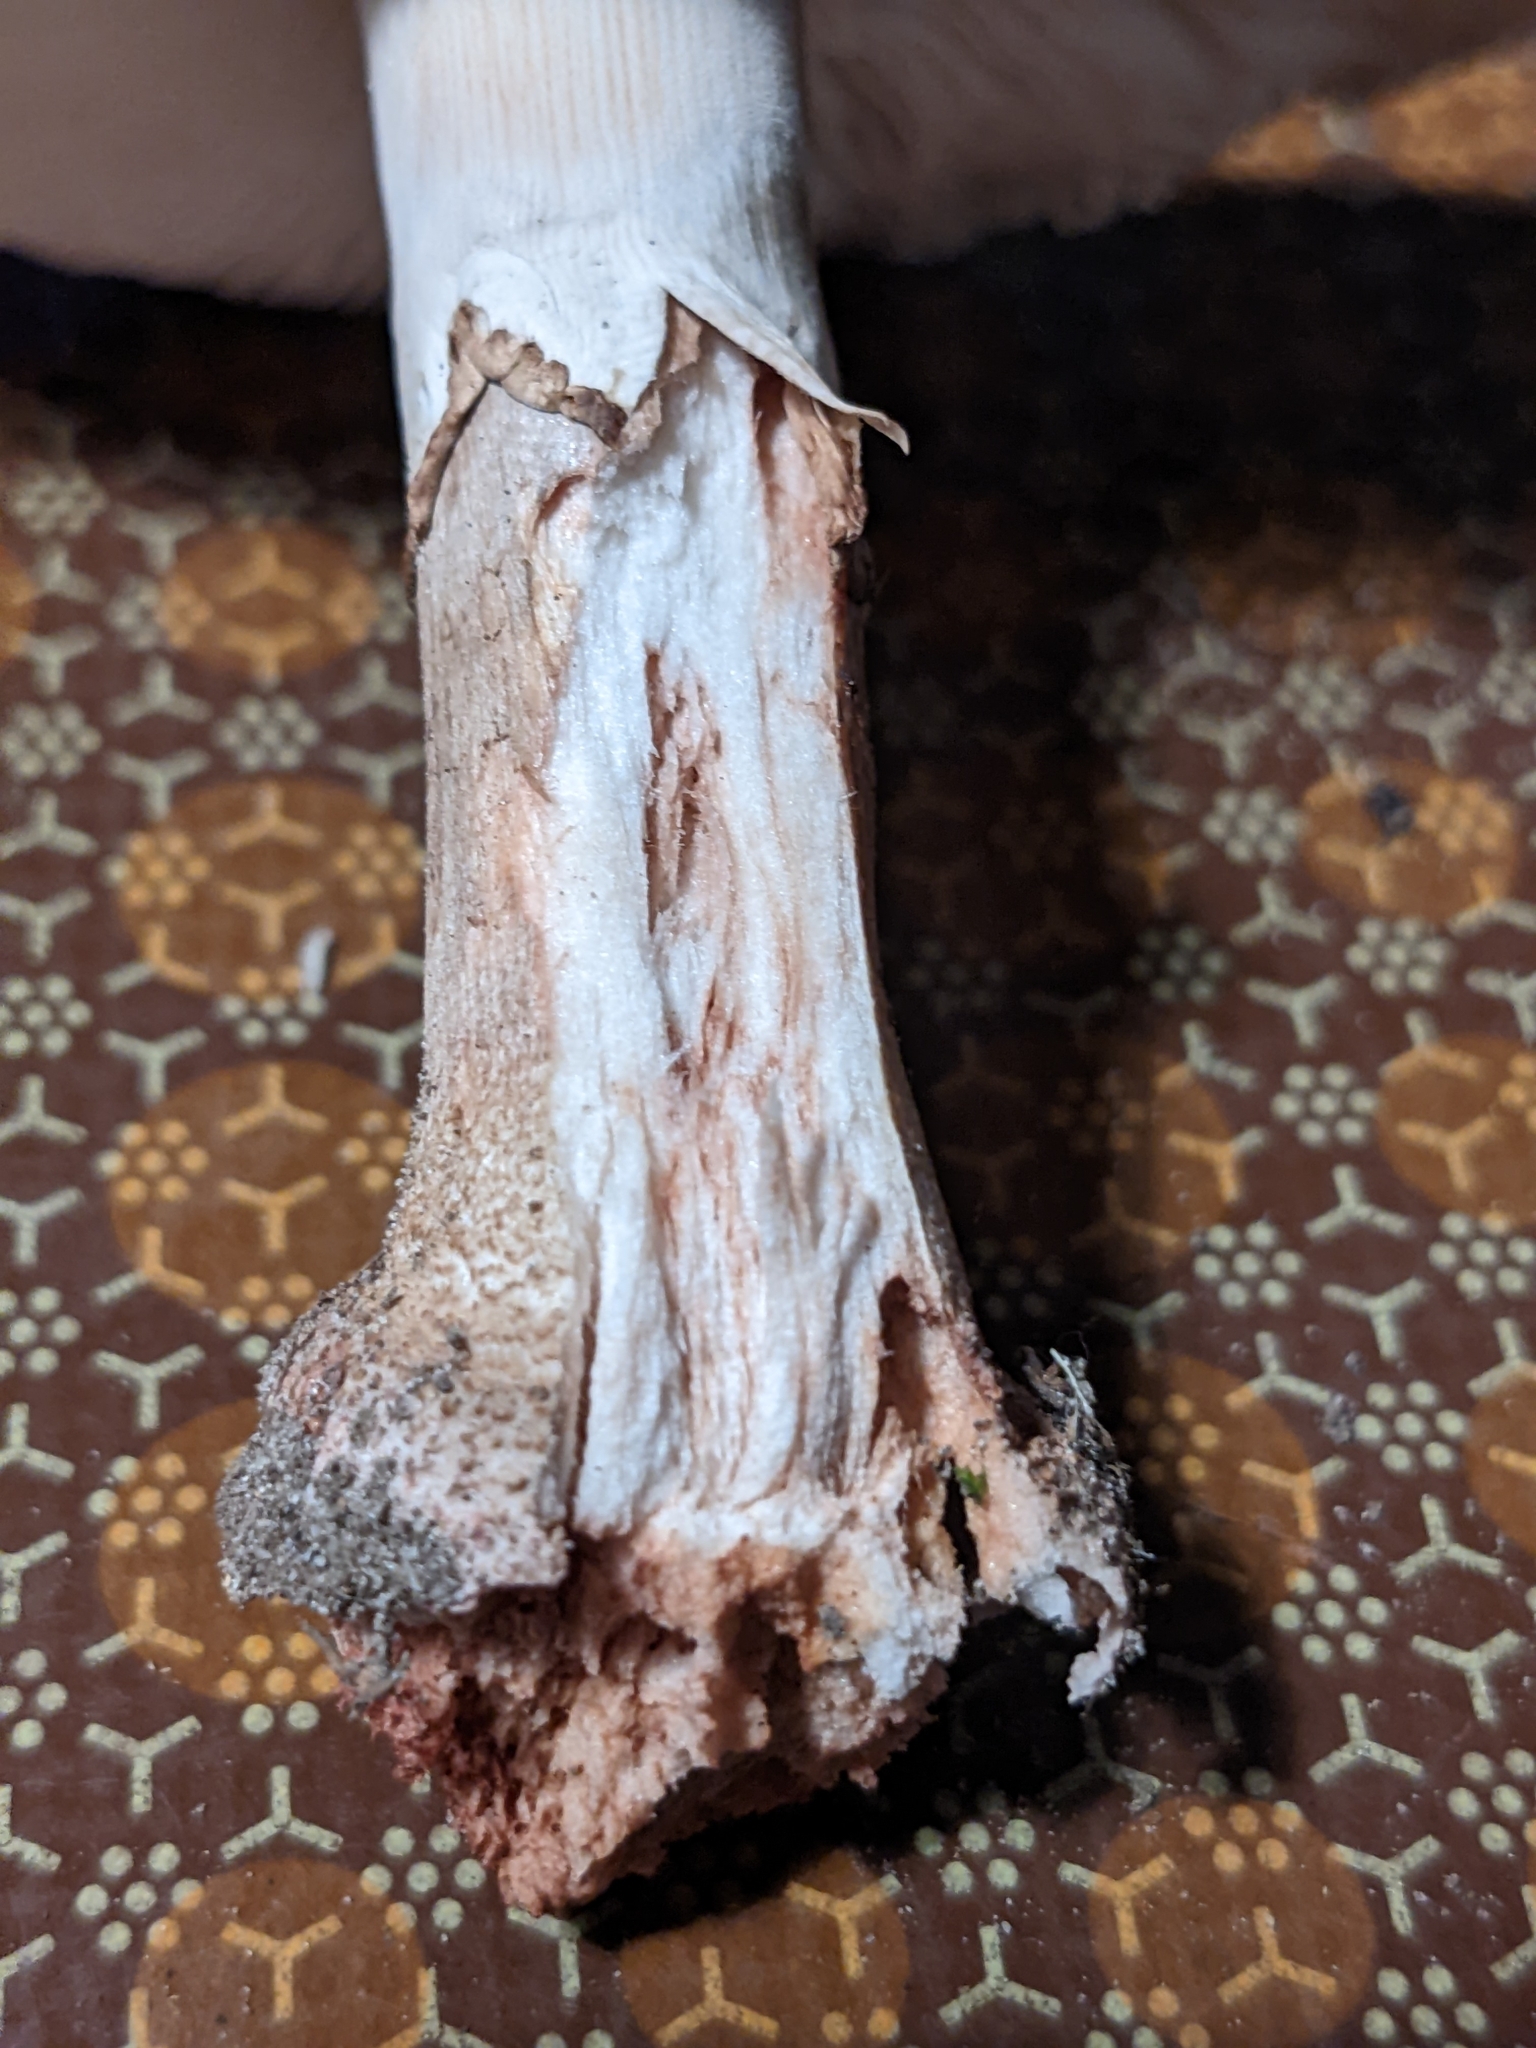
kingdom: Fungi
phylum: Basidiomycota
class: Agaricomycetes
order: Agaricales
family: Amanitaceae
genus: Amanita
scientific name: Amanita rubescens
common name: Blusher
